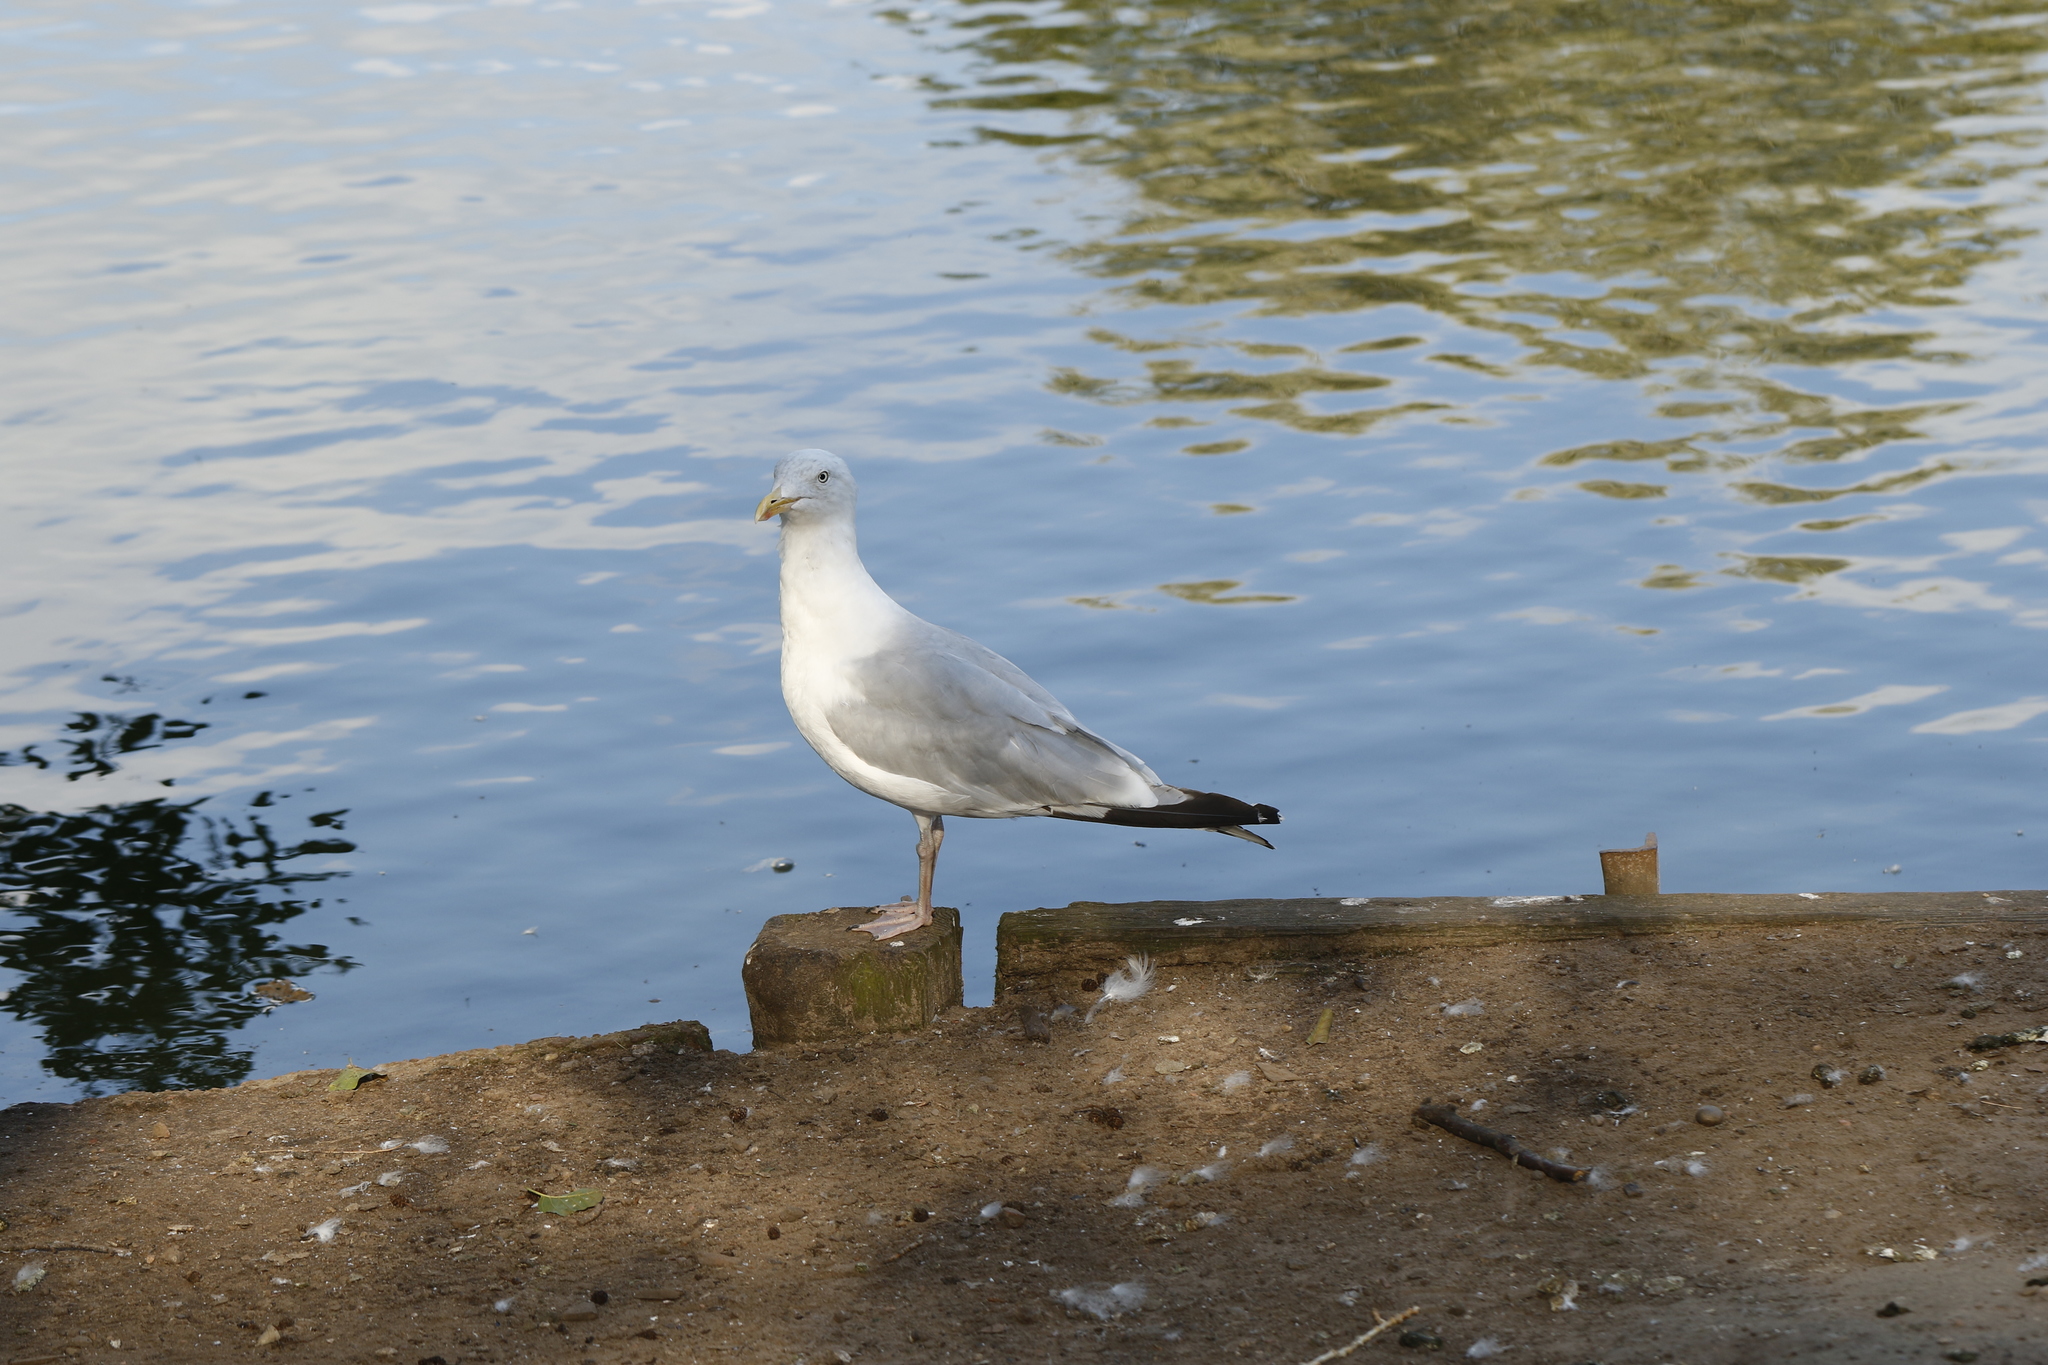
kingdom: Animalia
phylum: Chordata
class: Aves
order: Charadriiformes
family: Laridae
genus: Larus
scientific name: Larus argentatus
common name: Herring gull
